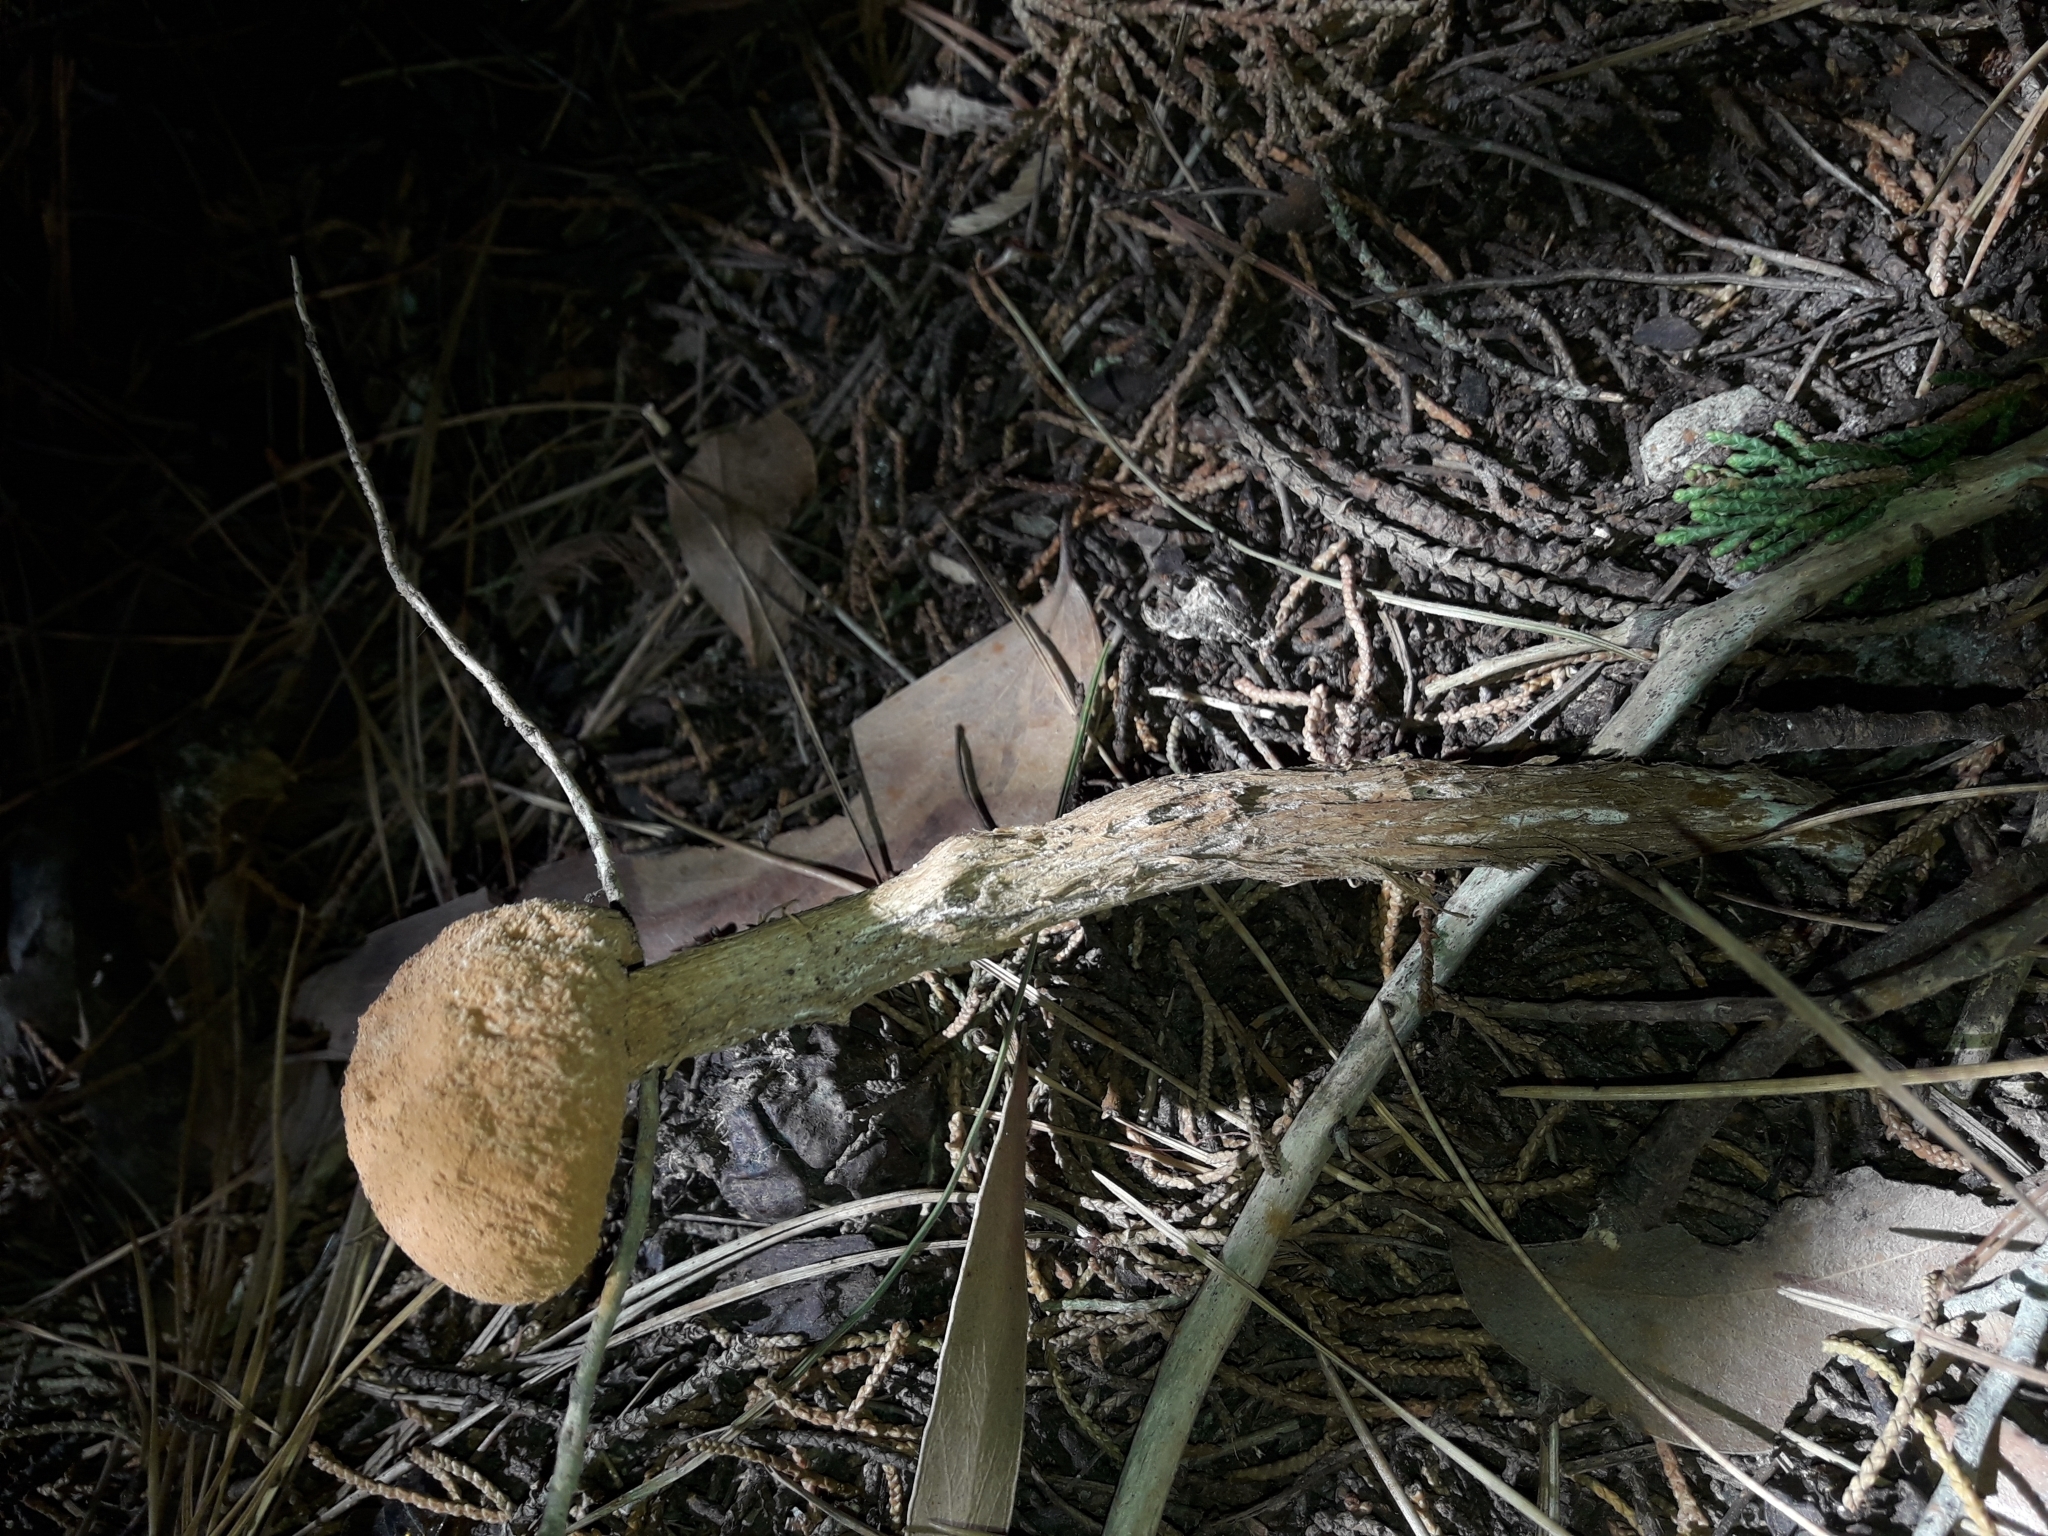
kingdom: Fungi
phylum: Basidiomycota
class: Agaricomycetes
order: Agaricales
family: Agaricaceae
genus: Battarrea
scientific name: Battarrea phalloides
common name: Sandy stiltball
